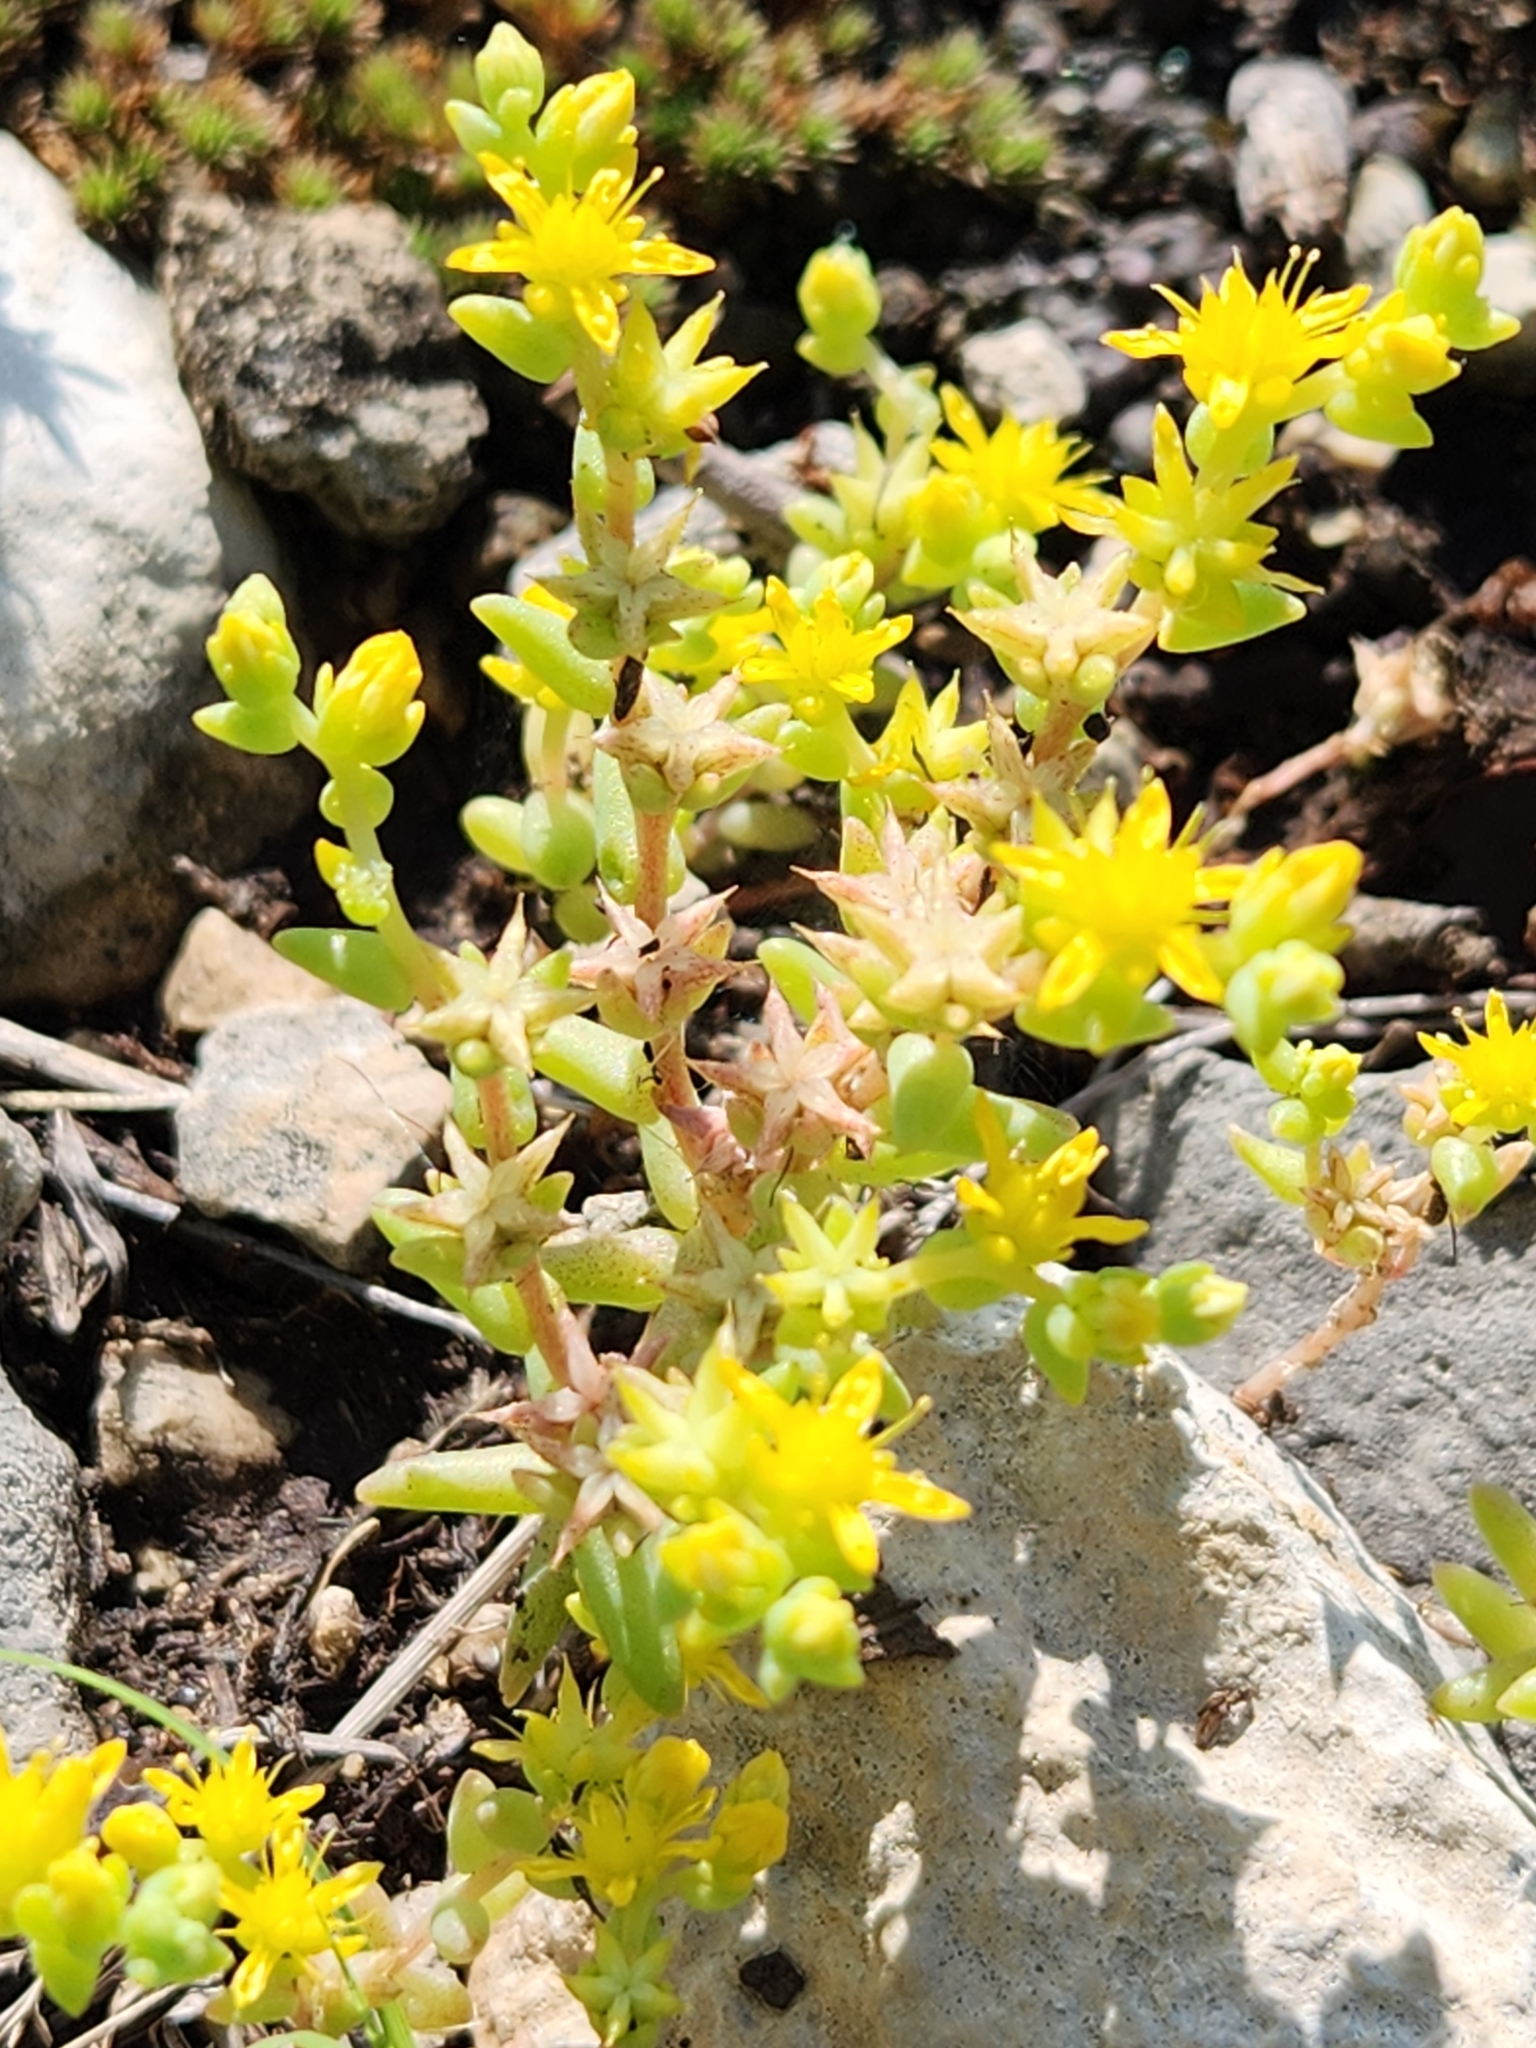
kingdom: Plantae
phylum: Tracheophyta
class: Magnoliopsida
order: Saxifragales
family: Crassulaceae
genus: Sedum
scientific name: Sedum nuttallii
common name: Yellow stonecrop
